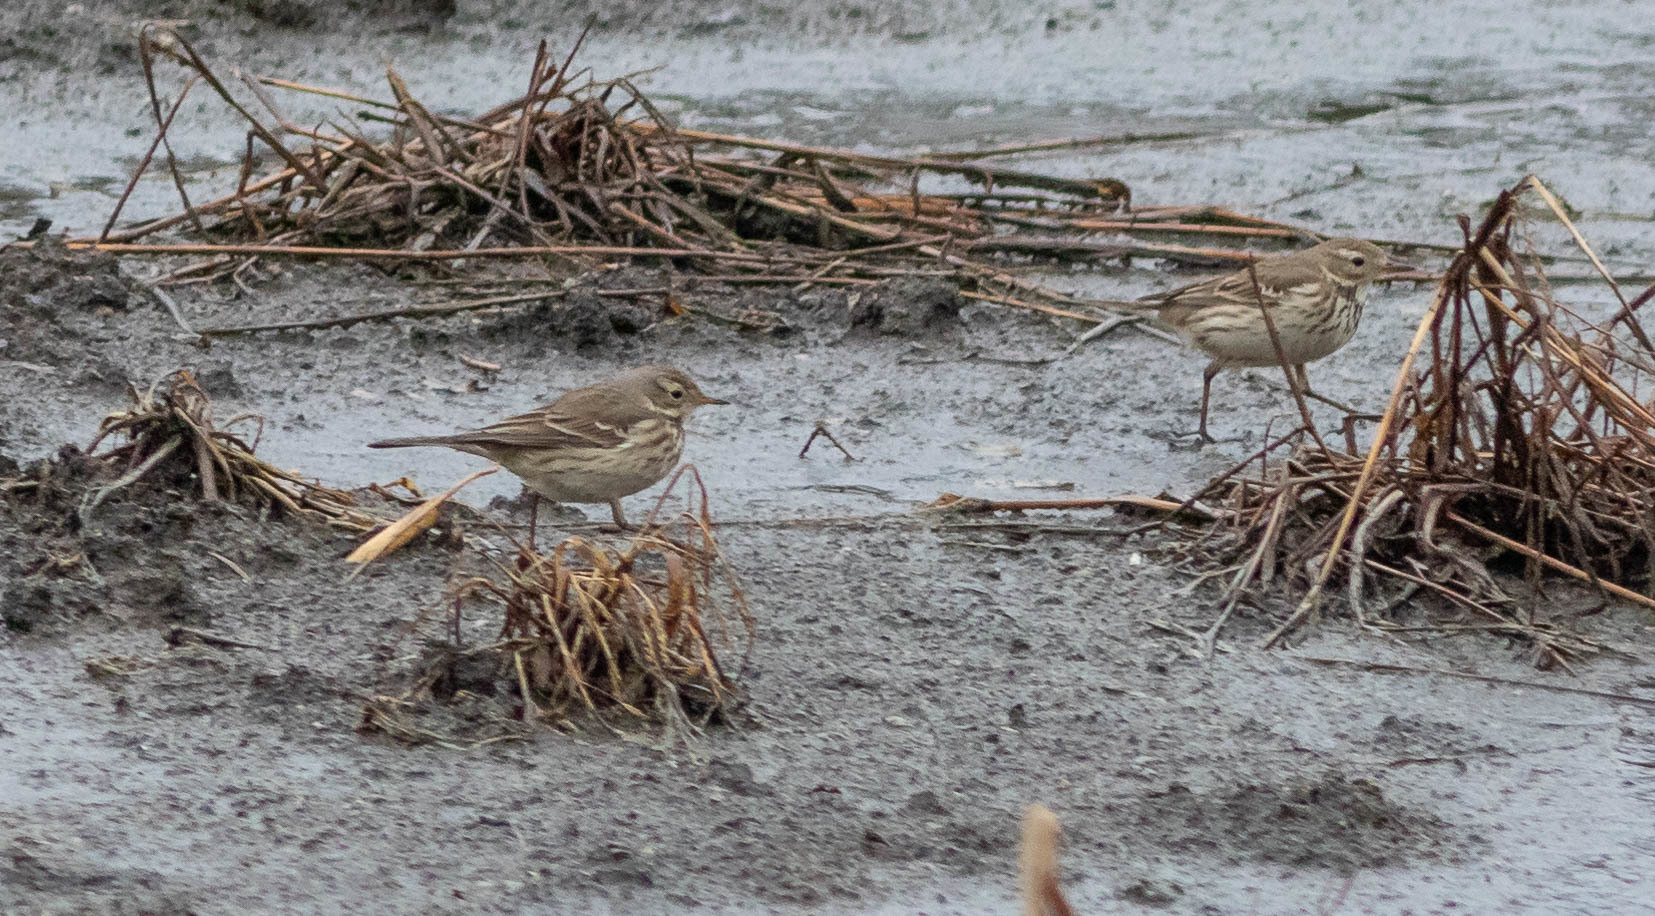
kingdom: Animalia
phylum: Chordata
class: Aves
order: Passeriformes
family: Motacillidae
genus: Anthus
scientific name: Anthus rubescens
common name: Buff-bellied pipit
